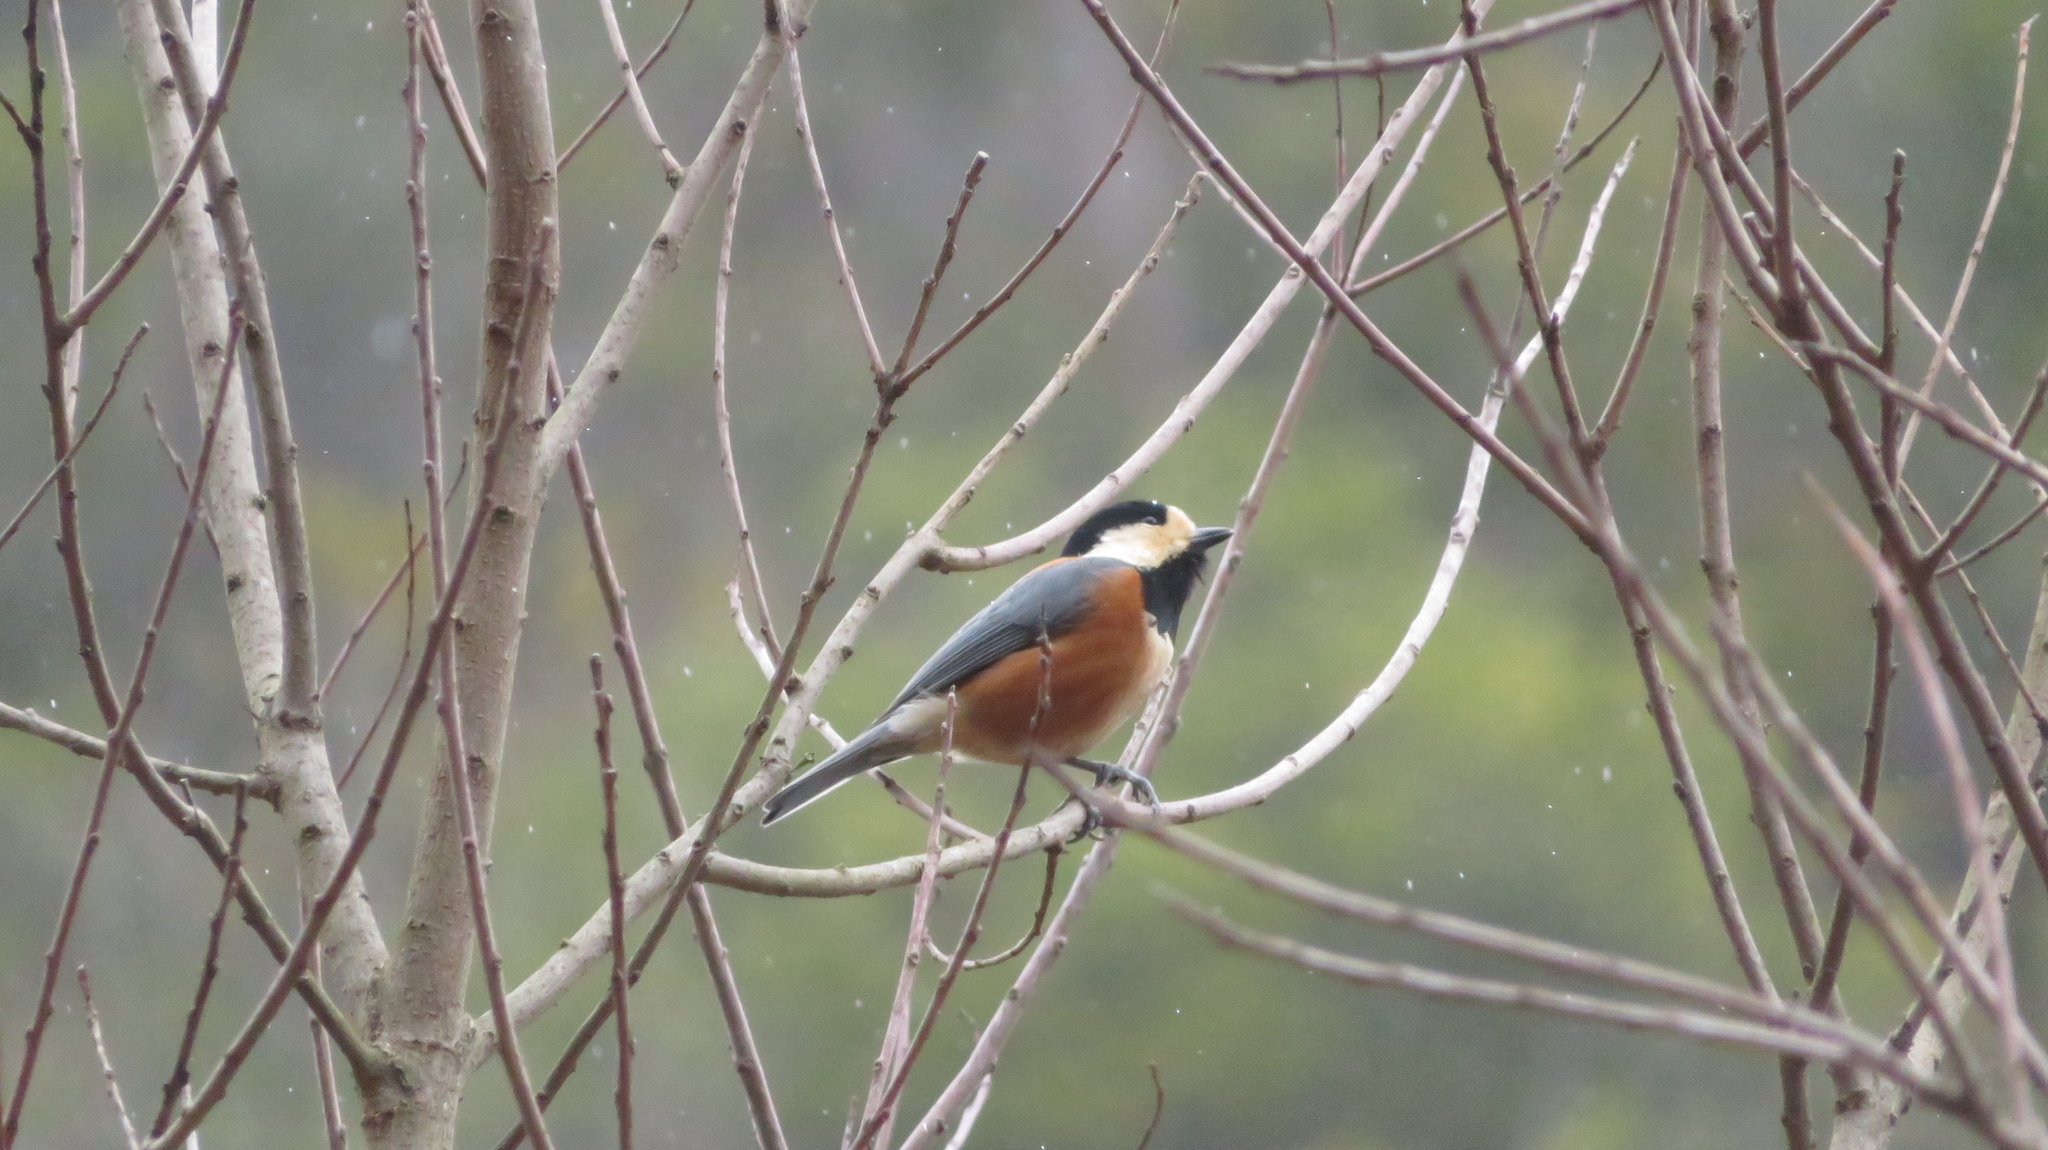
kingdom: Animalia
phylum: Chordata
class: Aves
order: Passeriformes
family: Paridae
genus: Poecile
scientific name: Poecile varius
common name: Varied tit
